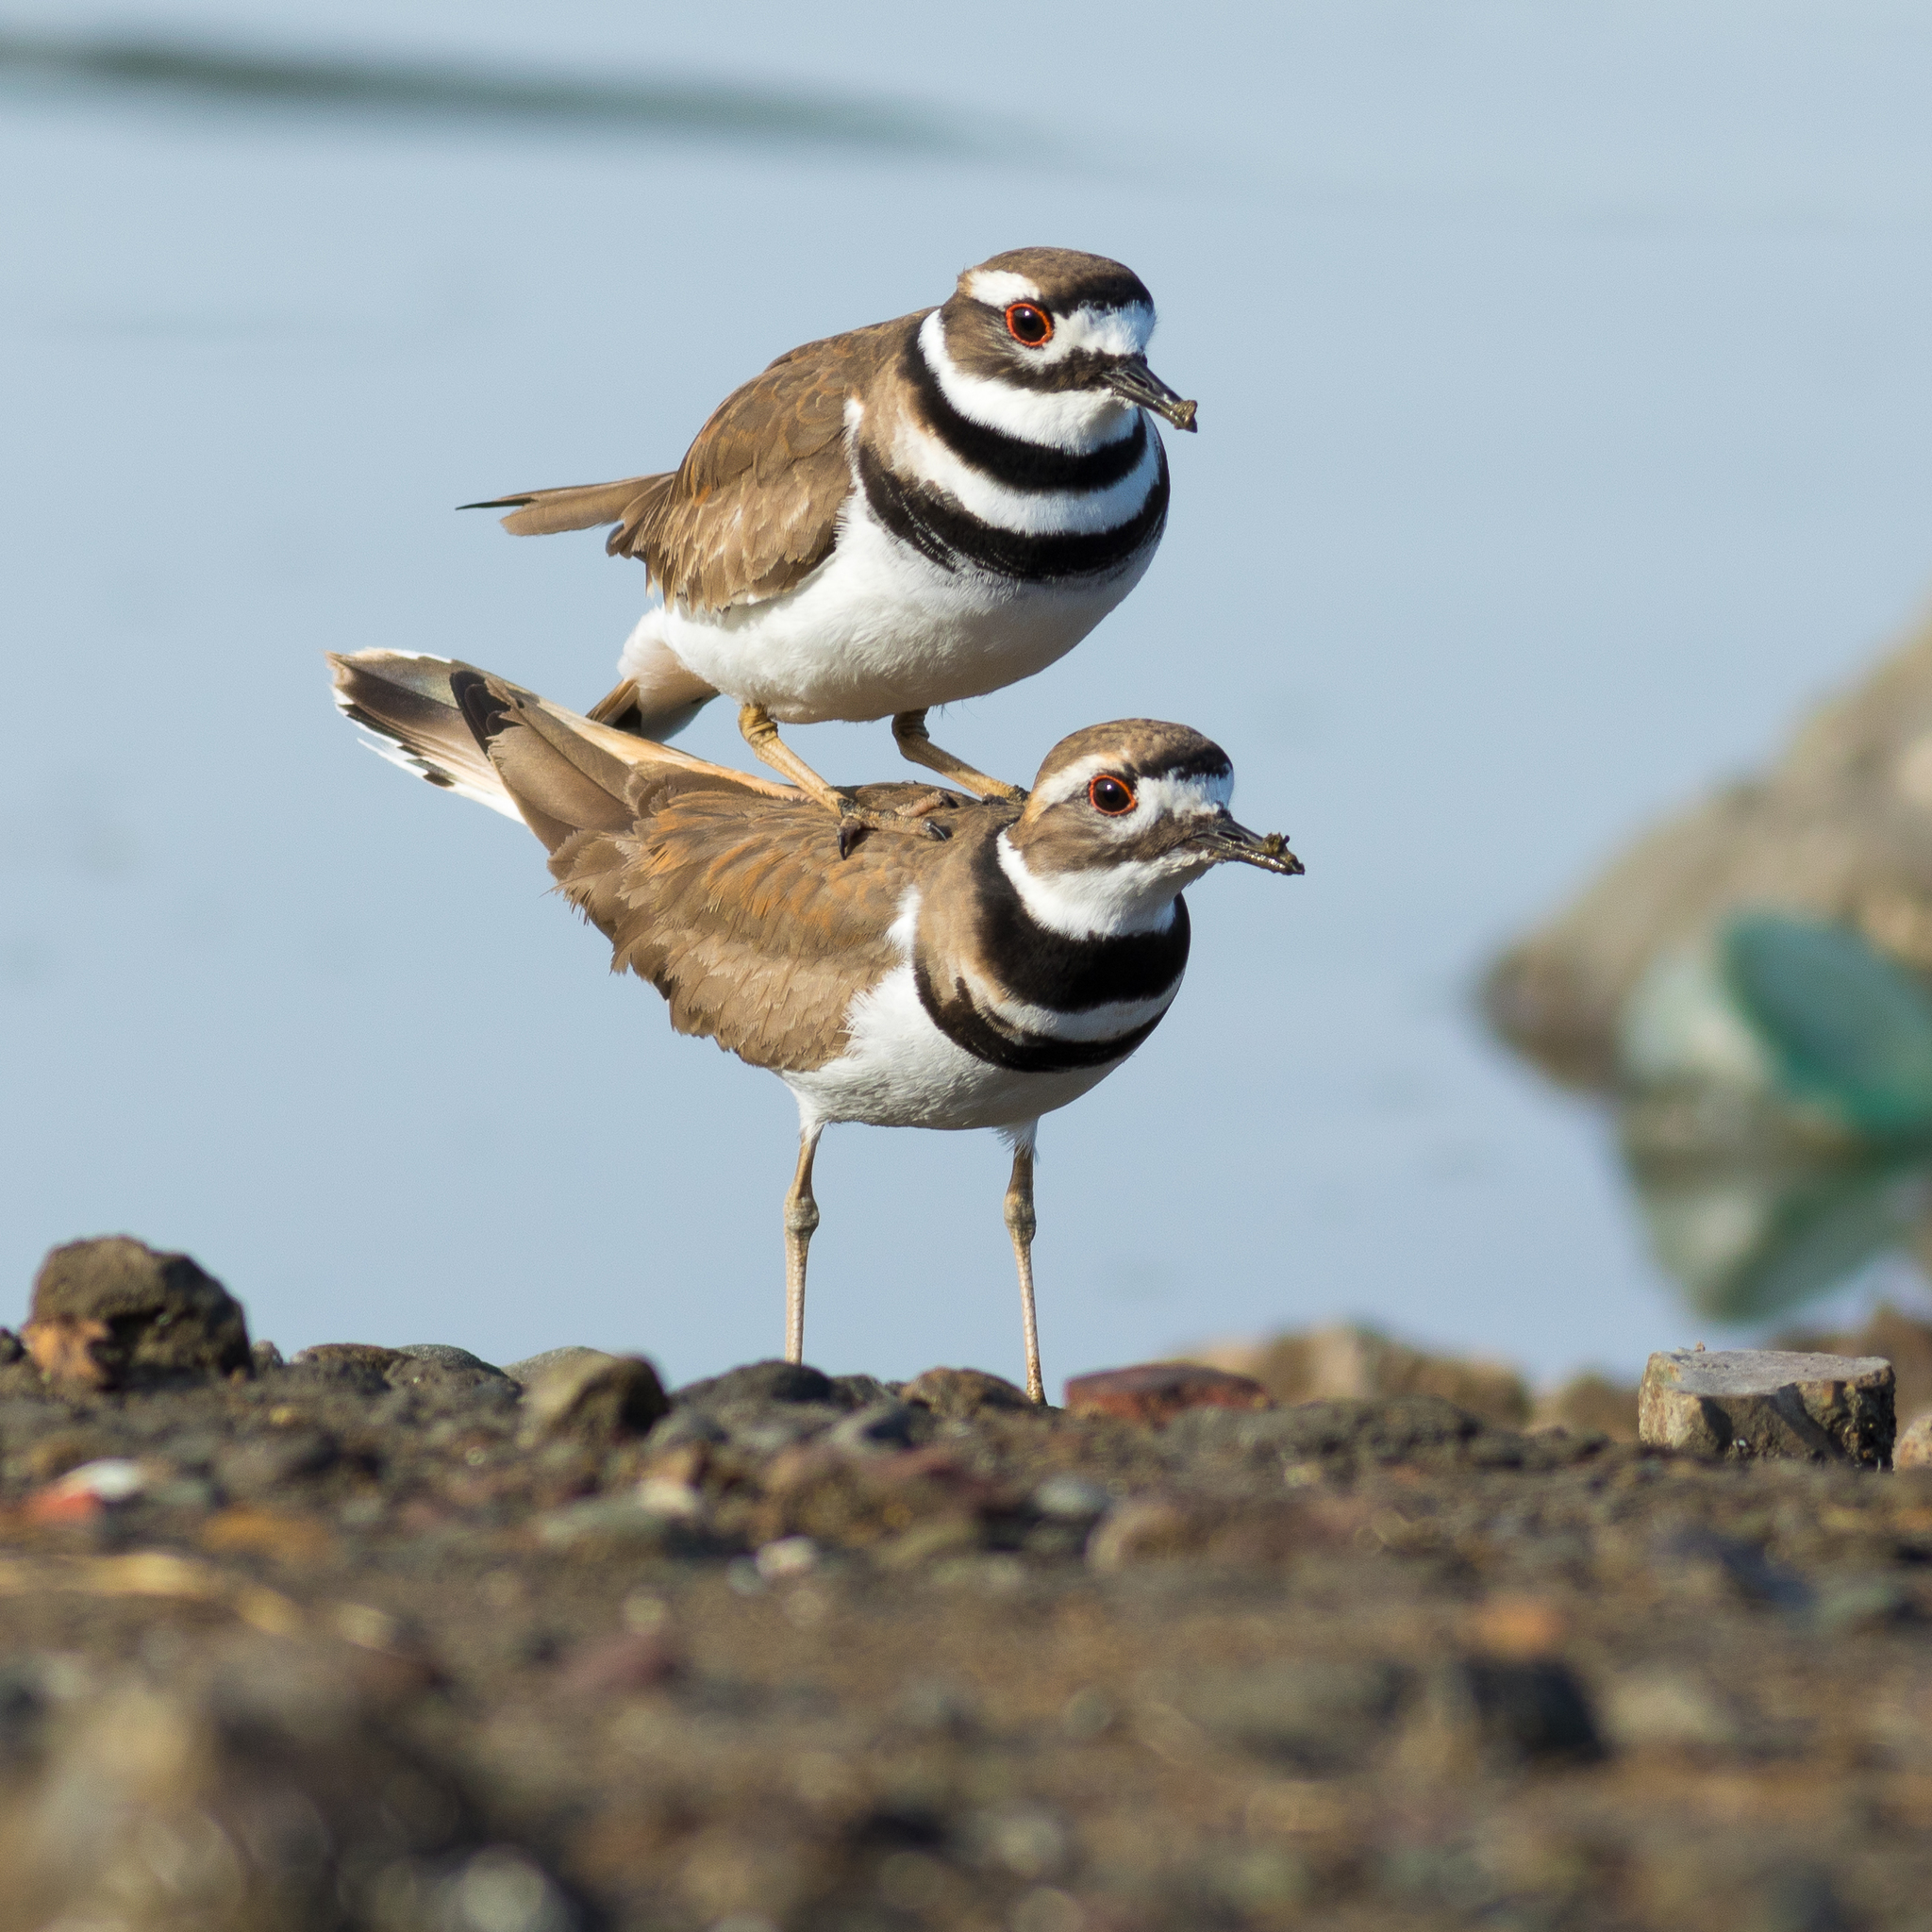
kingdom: Animalia
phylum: Chordata
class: Aves
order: Charadriiformes
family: Charadriidae
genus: Charadrius
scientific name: Charadrius vociferus
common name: Killdeer
